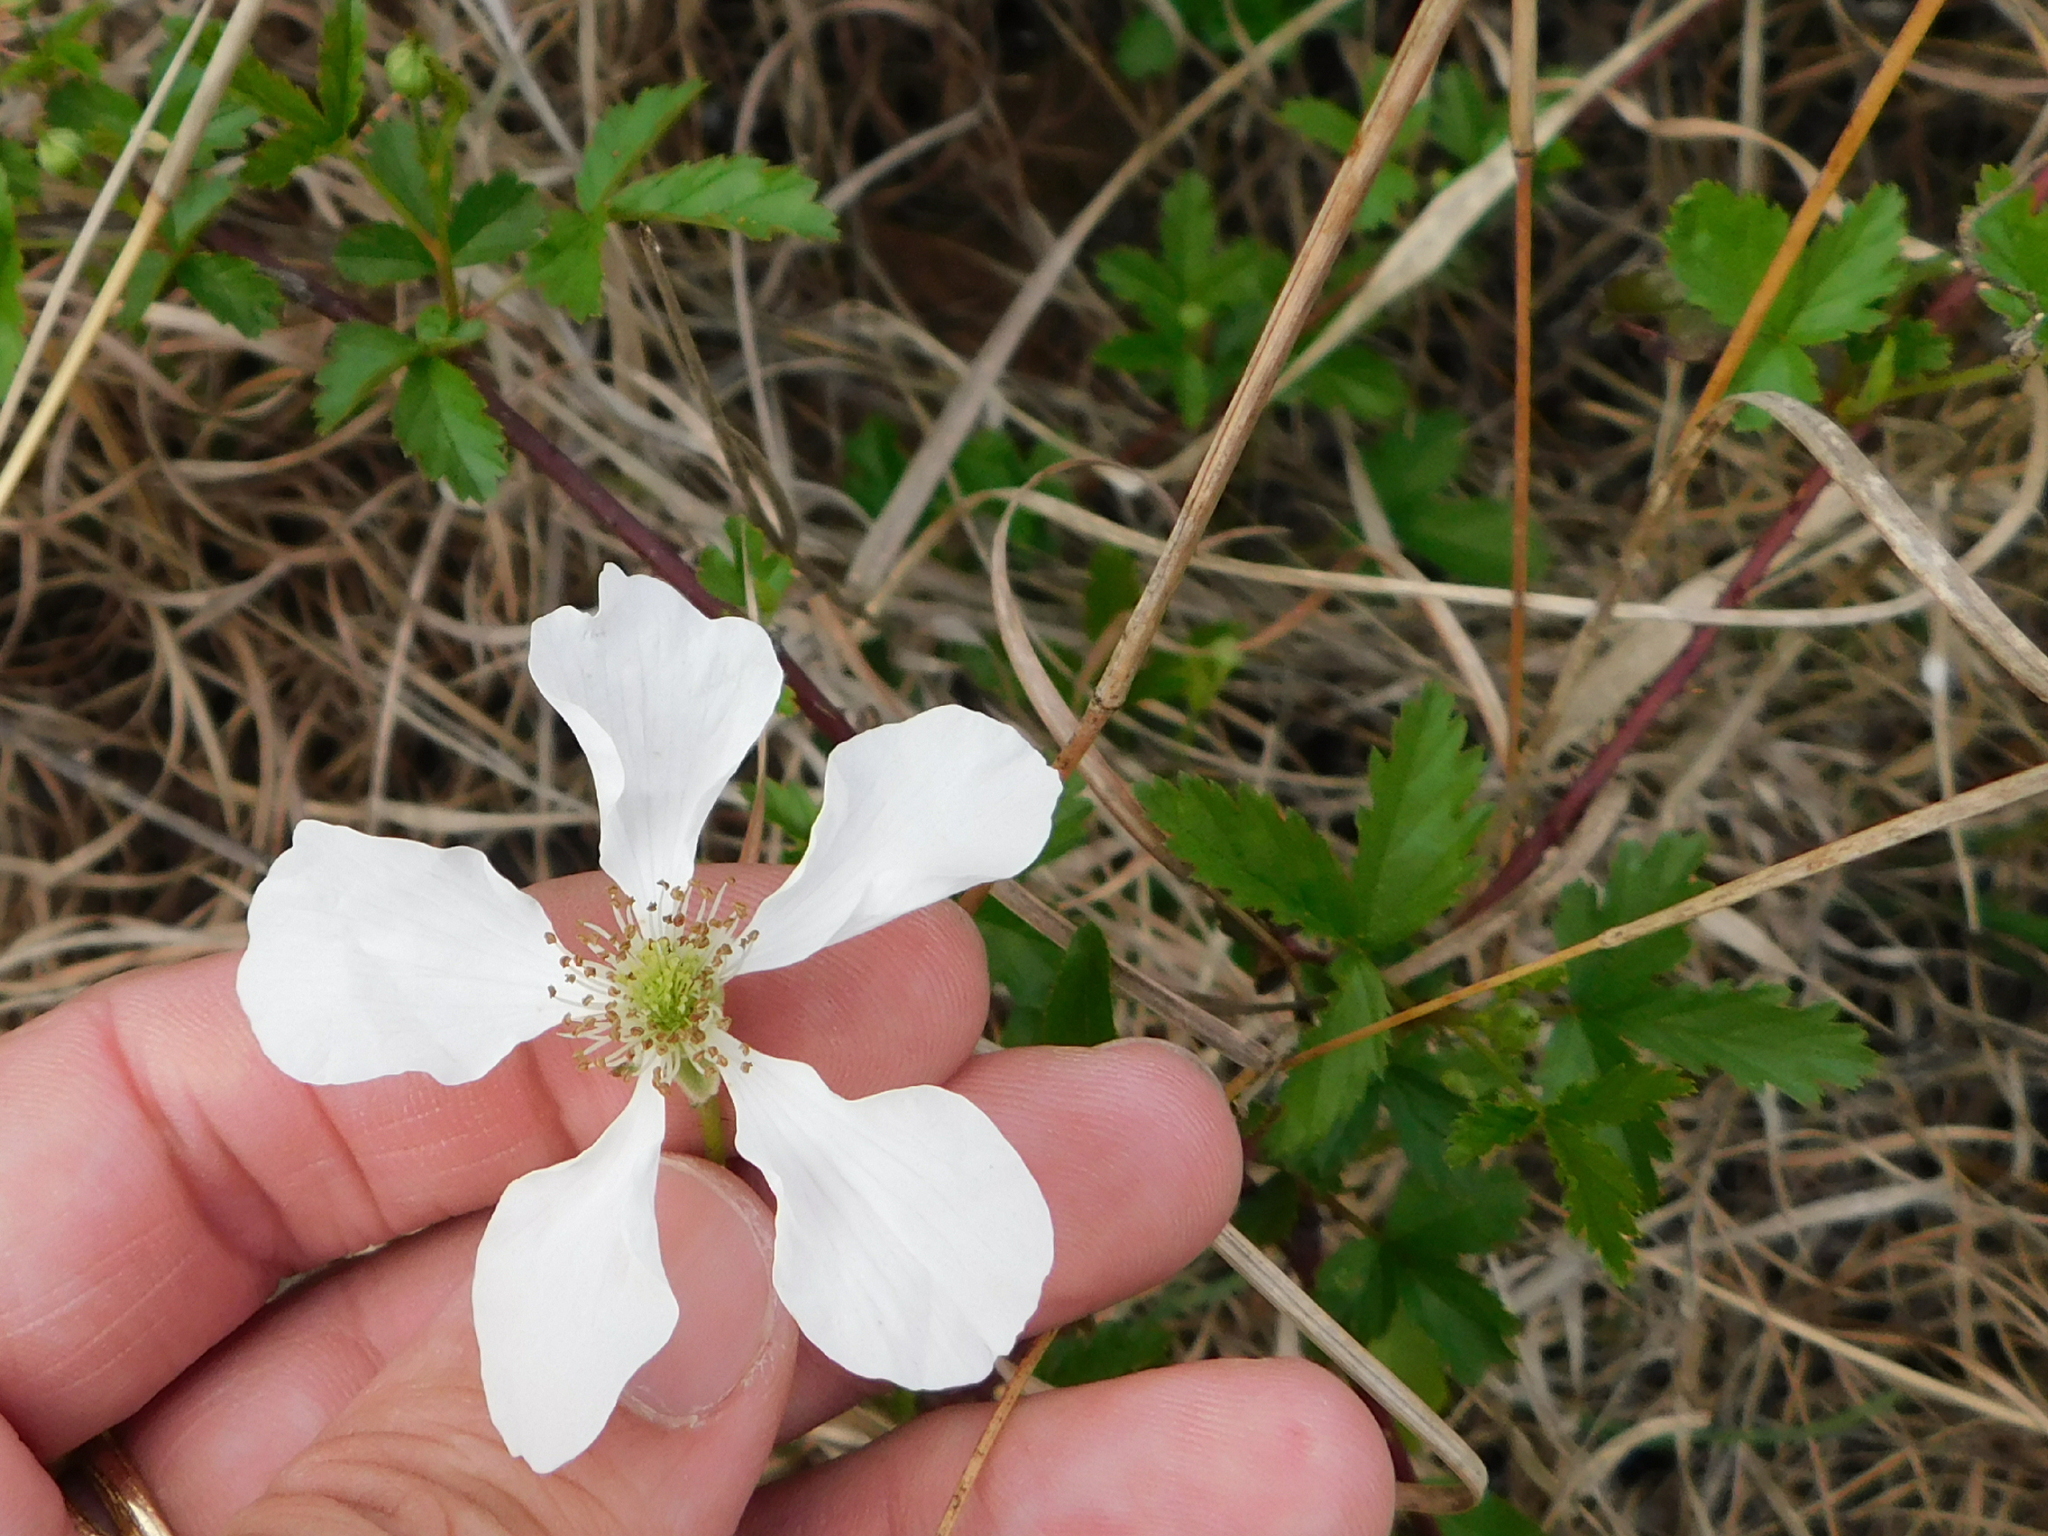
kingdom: Plantae
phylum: Tracheophyta
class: Magnoliopsida
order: Rosales
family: Rosaceae
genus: Rubus
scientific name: Rubus trivialis
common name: Southern dewberry
